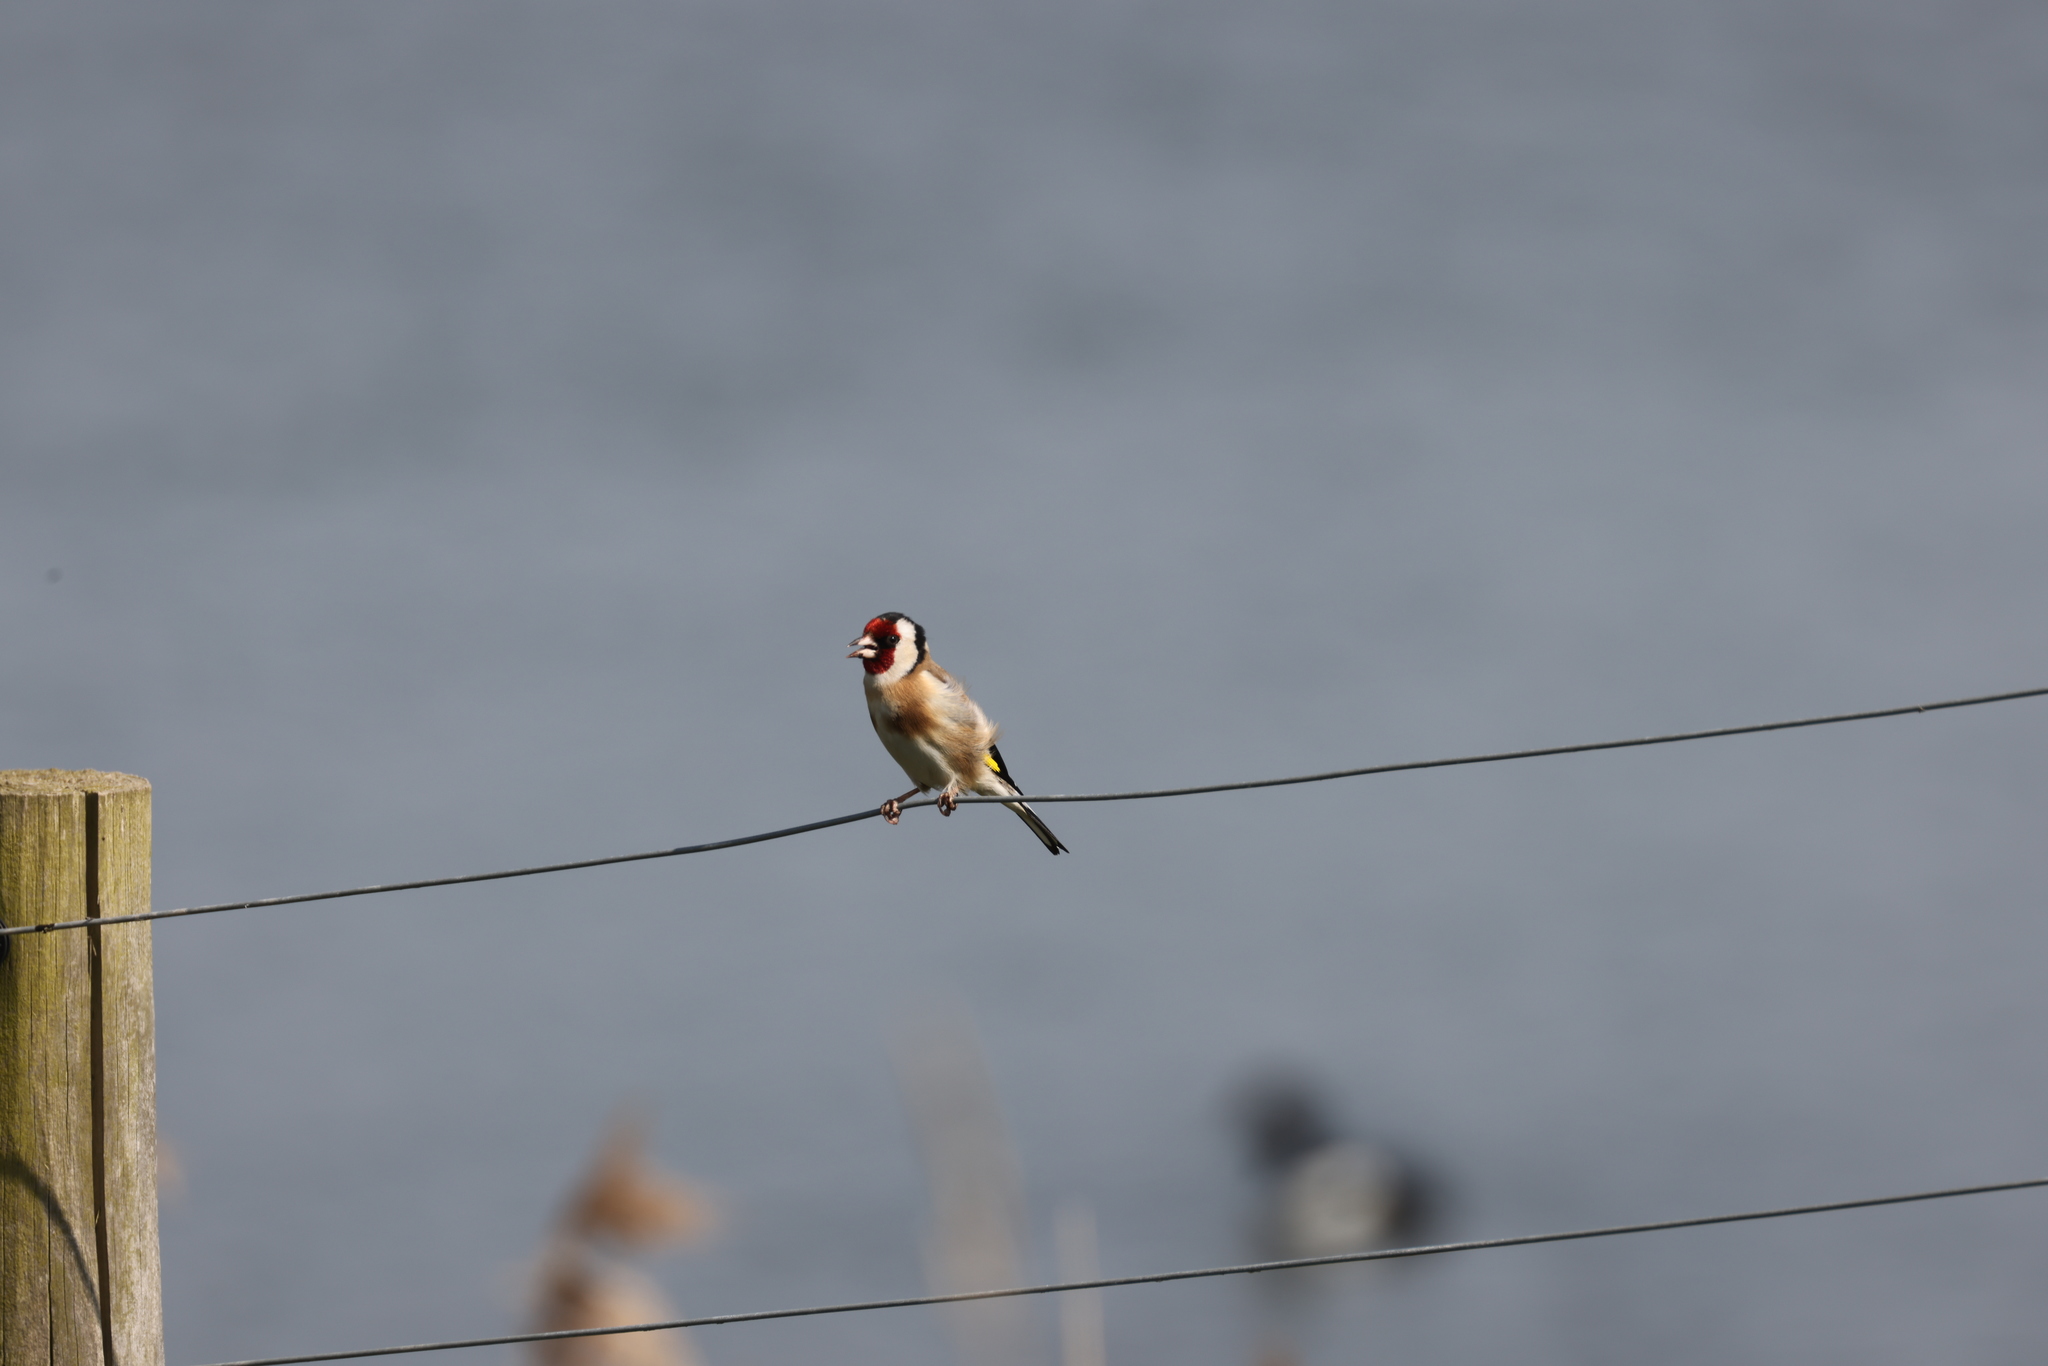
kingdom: Animalia
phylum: Chordata
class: Aves
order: Passeriformes
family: Fringillidae
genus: Carduelis
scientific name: Carduelis carduelis
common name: European goldfinch
